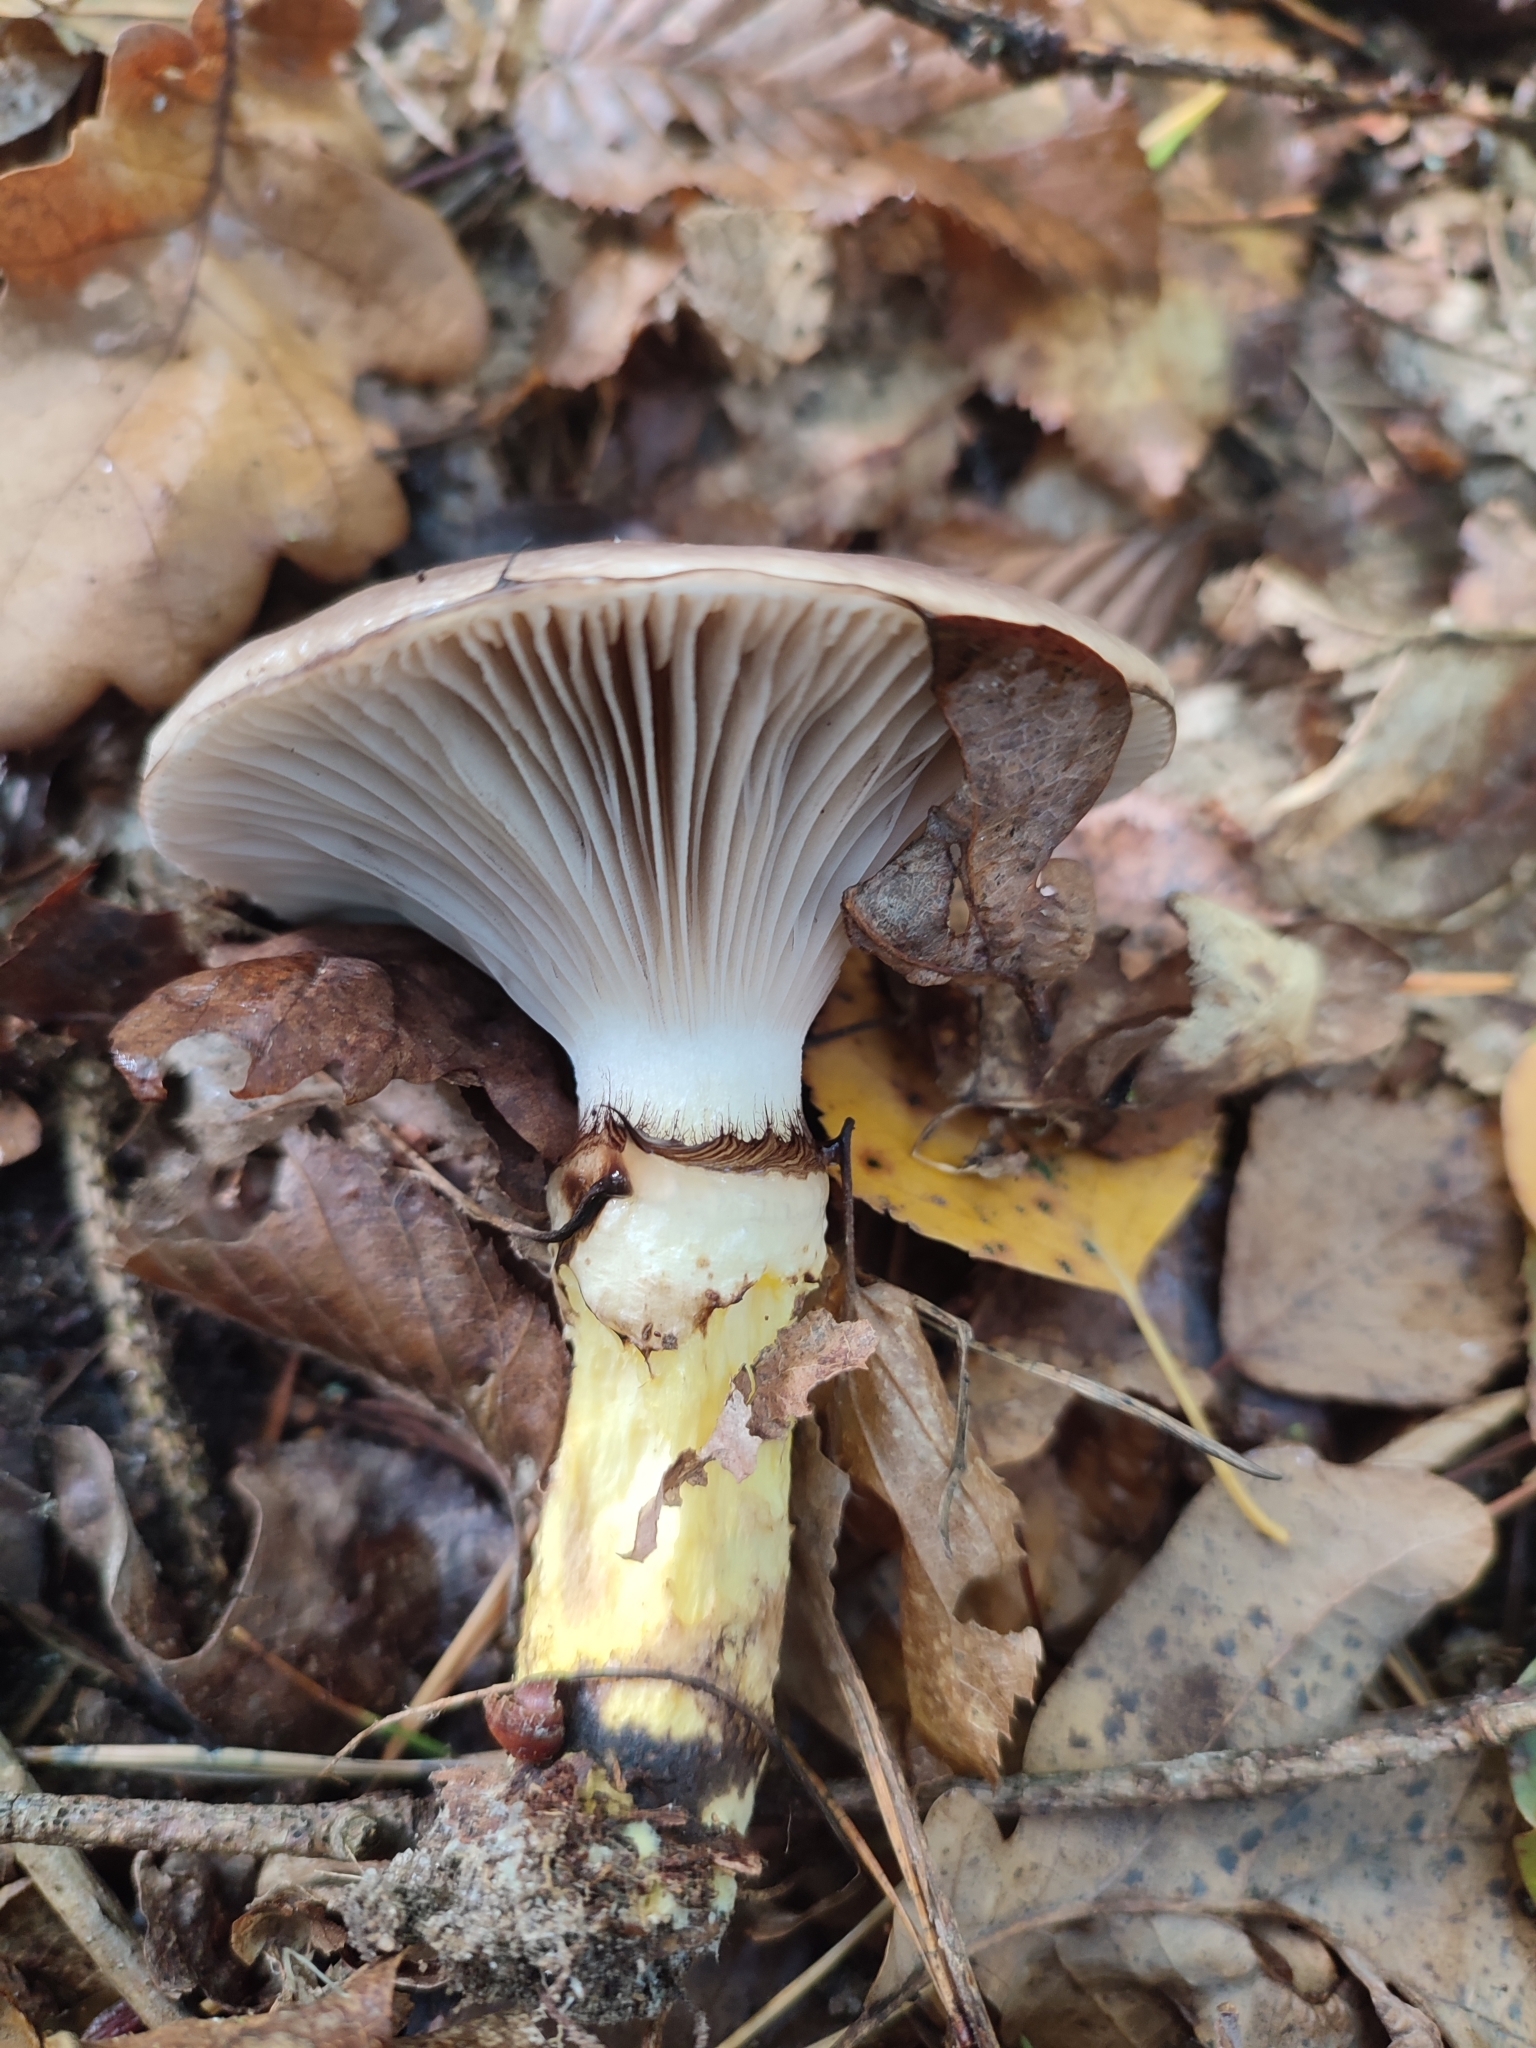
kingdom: Fungi
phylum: Basidiomycota
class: Agaricomycetes
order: Boletales
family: Gomphidiaceae
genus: Gomphidius
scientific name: Gomphidius glutinosus
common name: Slimy spike
